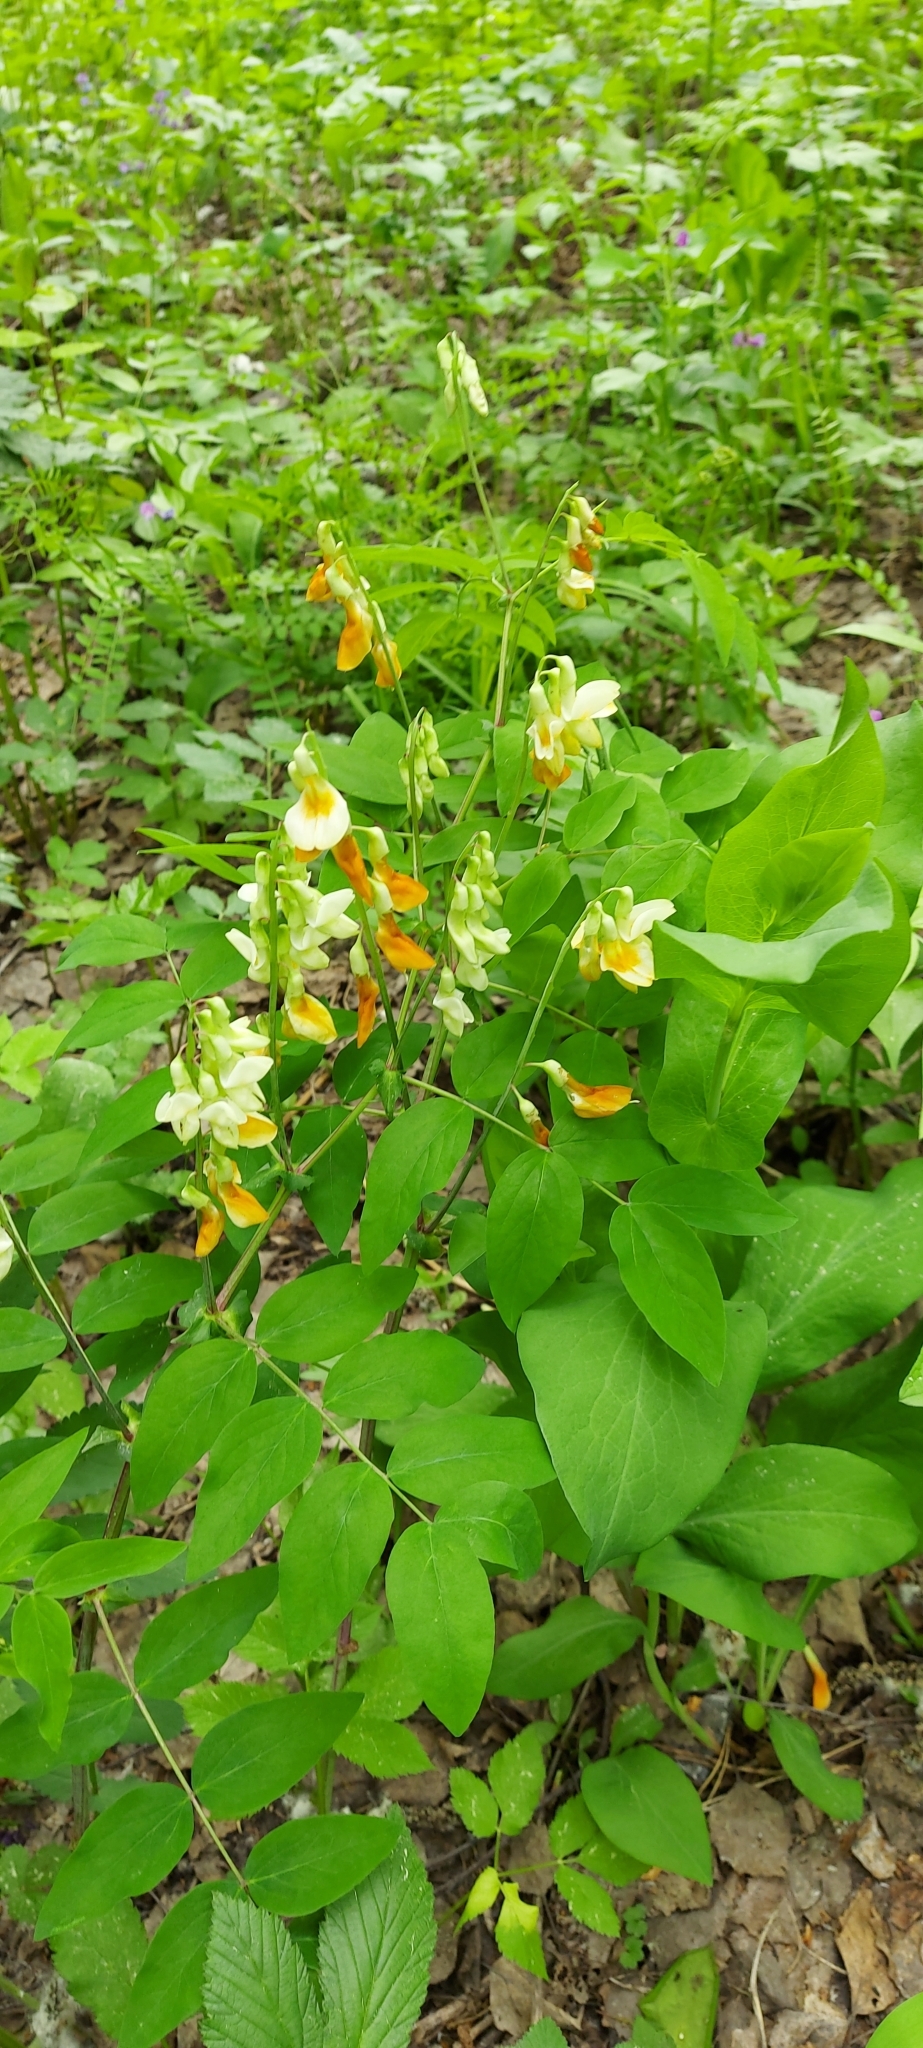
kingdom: Plantae
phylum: Tracheophyta
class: Magnoliopsida
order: Fabales
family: Fabaceae
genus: Lathyrus
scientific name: Lathyrus gmelinii
